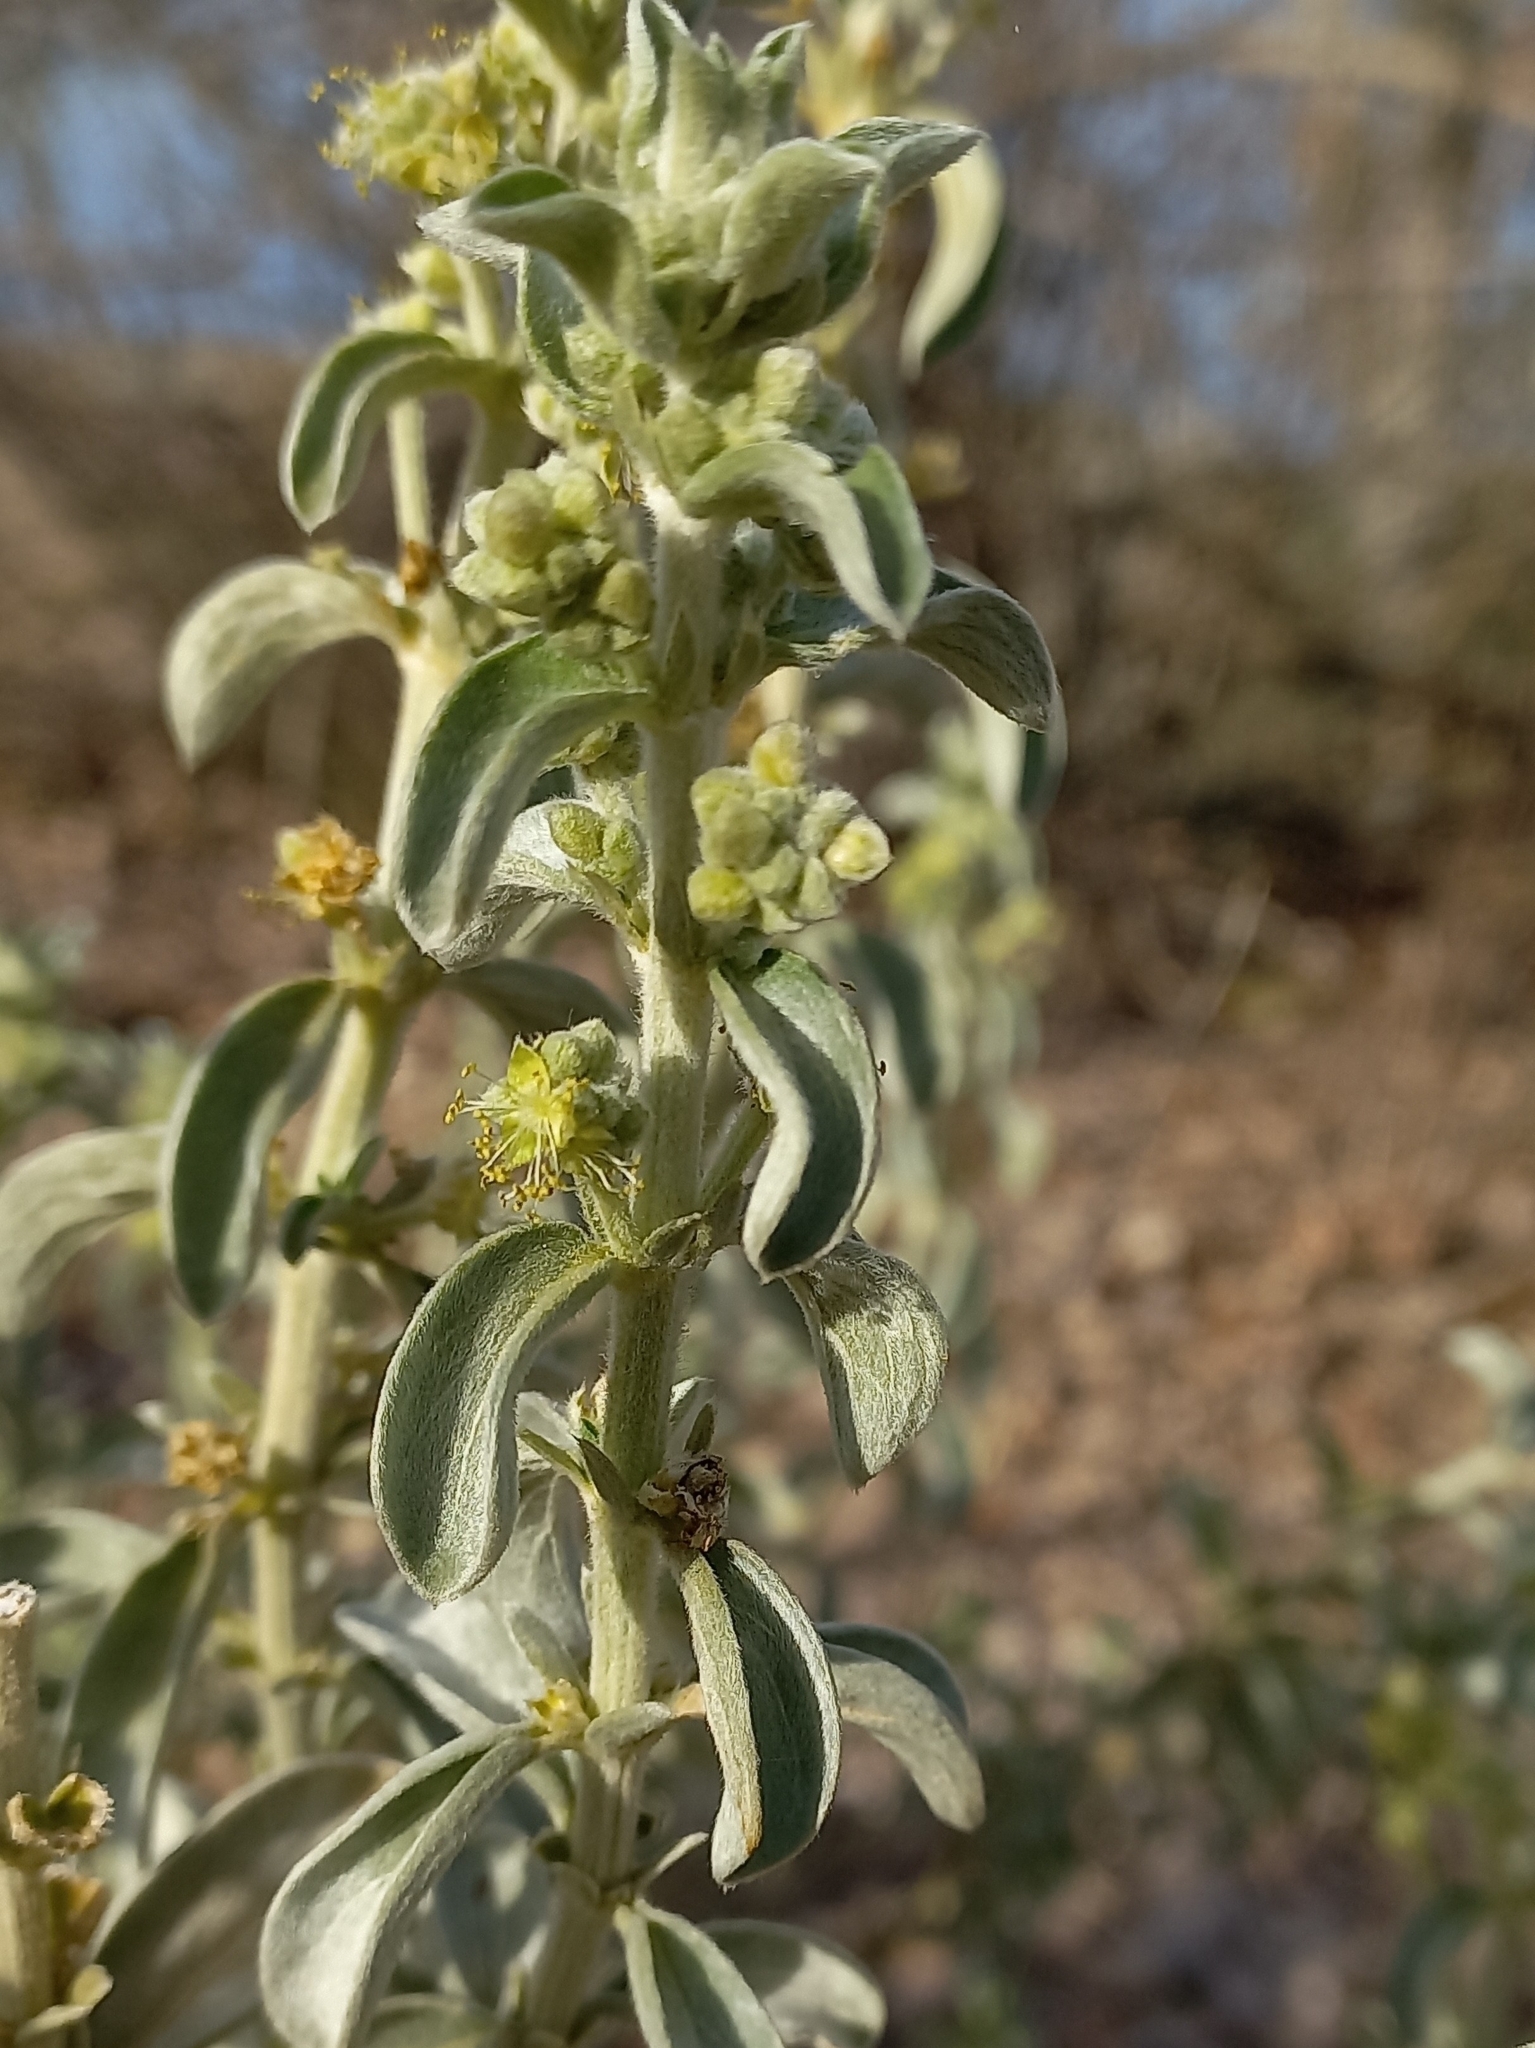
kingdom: Plantae
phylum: Tracheophyta
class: Magnoliopsida
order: Malpighiales
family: Euphorbiaceae
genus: Mercurialis
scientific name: Mercurialis tomentosa
